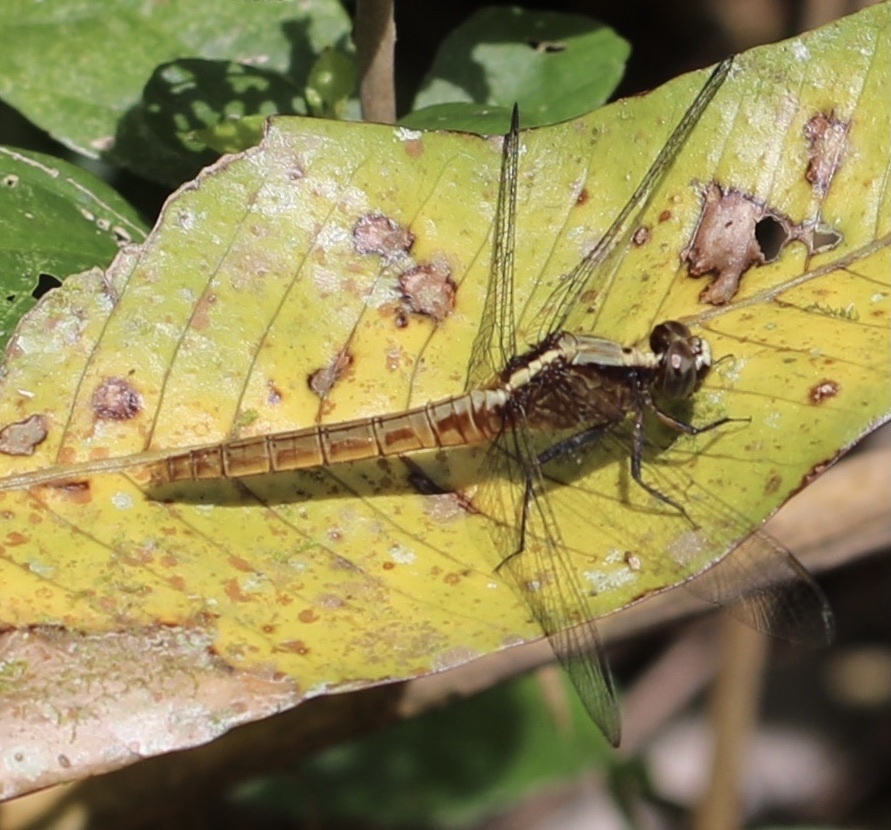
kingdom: Animalia
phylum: Arthropoda
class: Insecta
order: Odonata
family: Libellulidae
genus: Erythemis
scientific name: Erythemis peruviana
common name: Flame-tailed pondhawk
